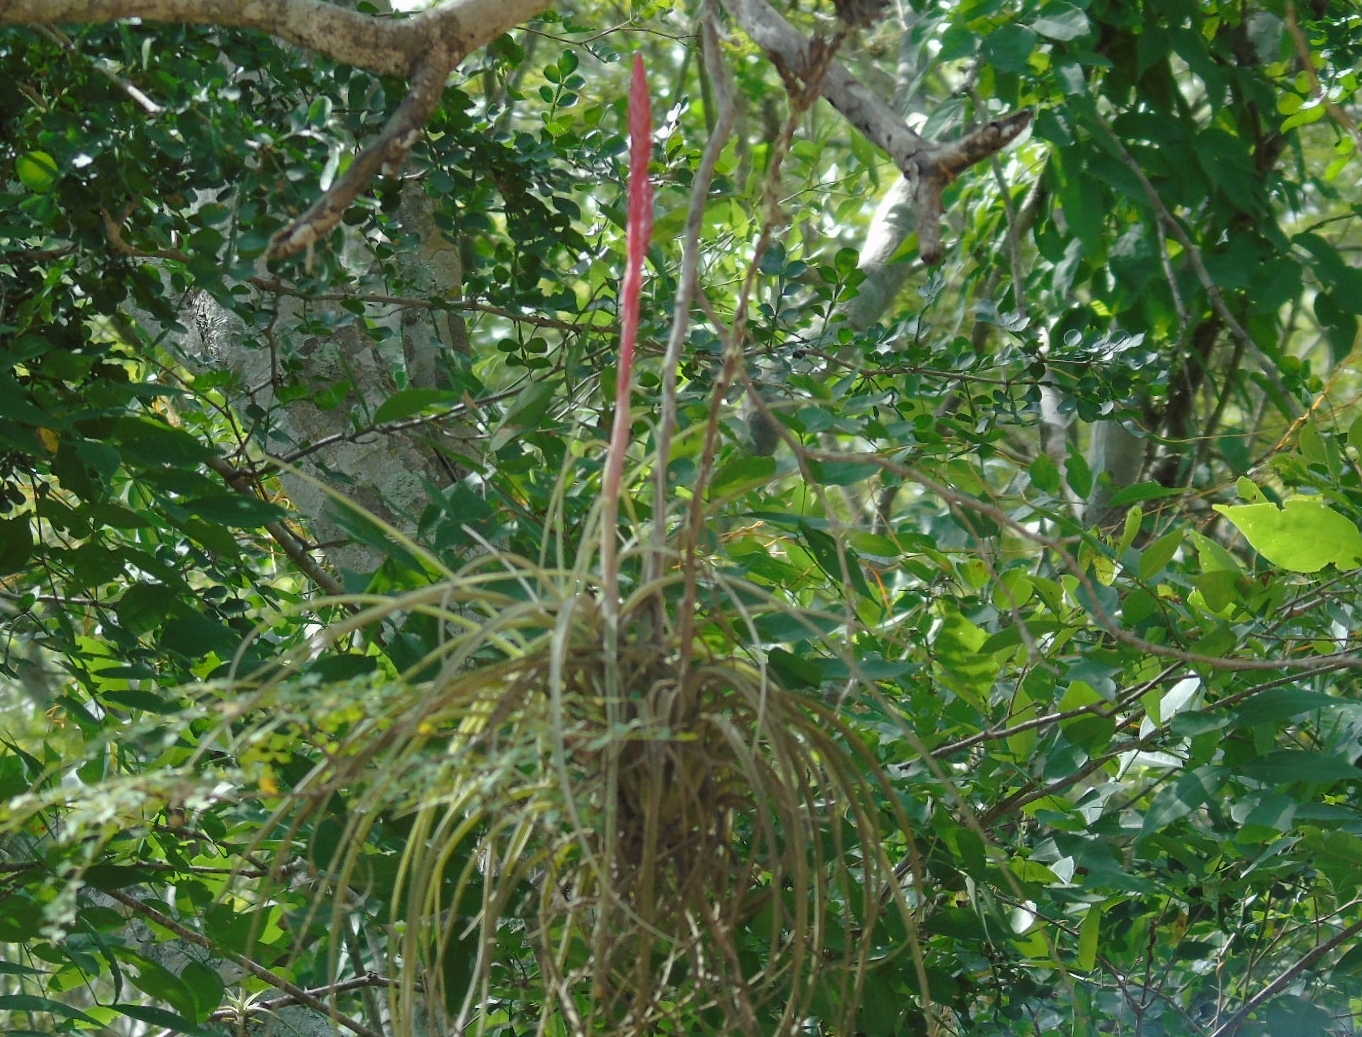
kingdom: Plantae
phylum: Tracheophyta
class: Liliopsida
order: Poales
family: Bromeliaceae
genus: Tillandsia
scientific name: Tillandsia exserta
